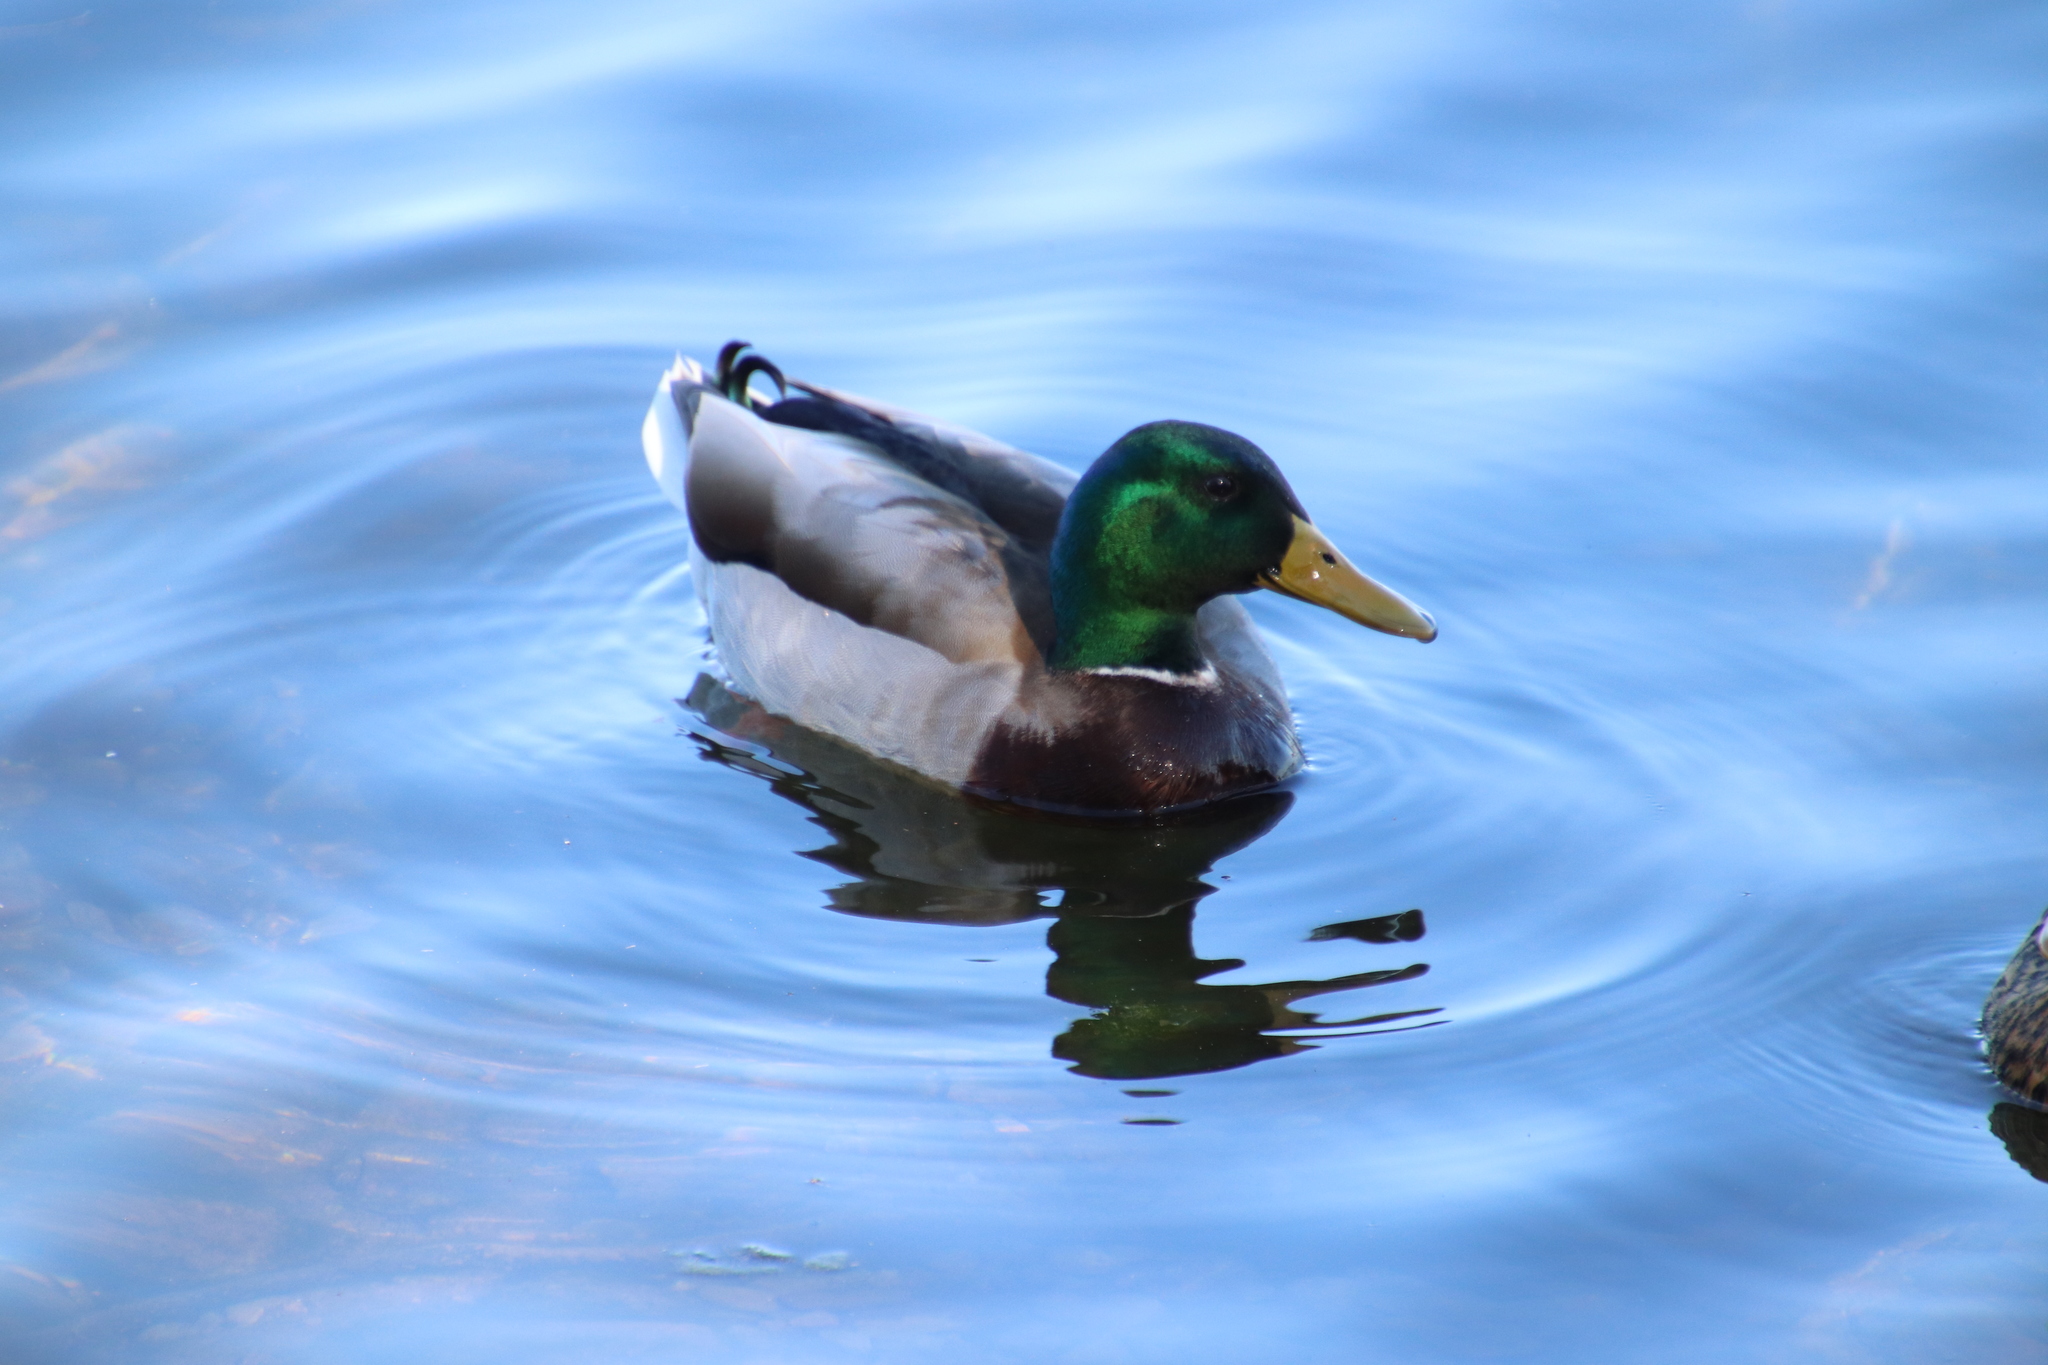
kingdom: Animalia
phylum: Chordata
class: Aves
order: Anseriformes
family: Anatidae
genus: Anas
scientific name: Anas platyrhynchos
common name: Mallard
